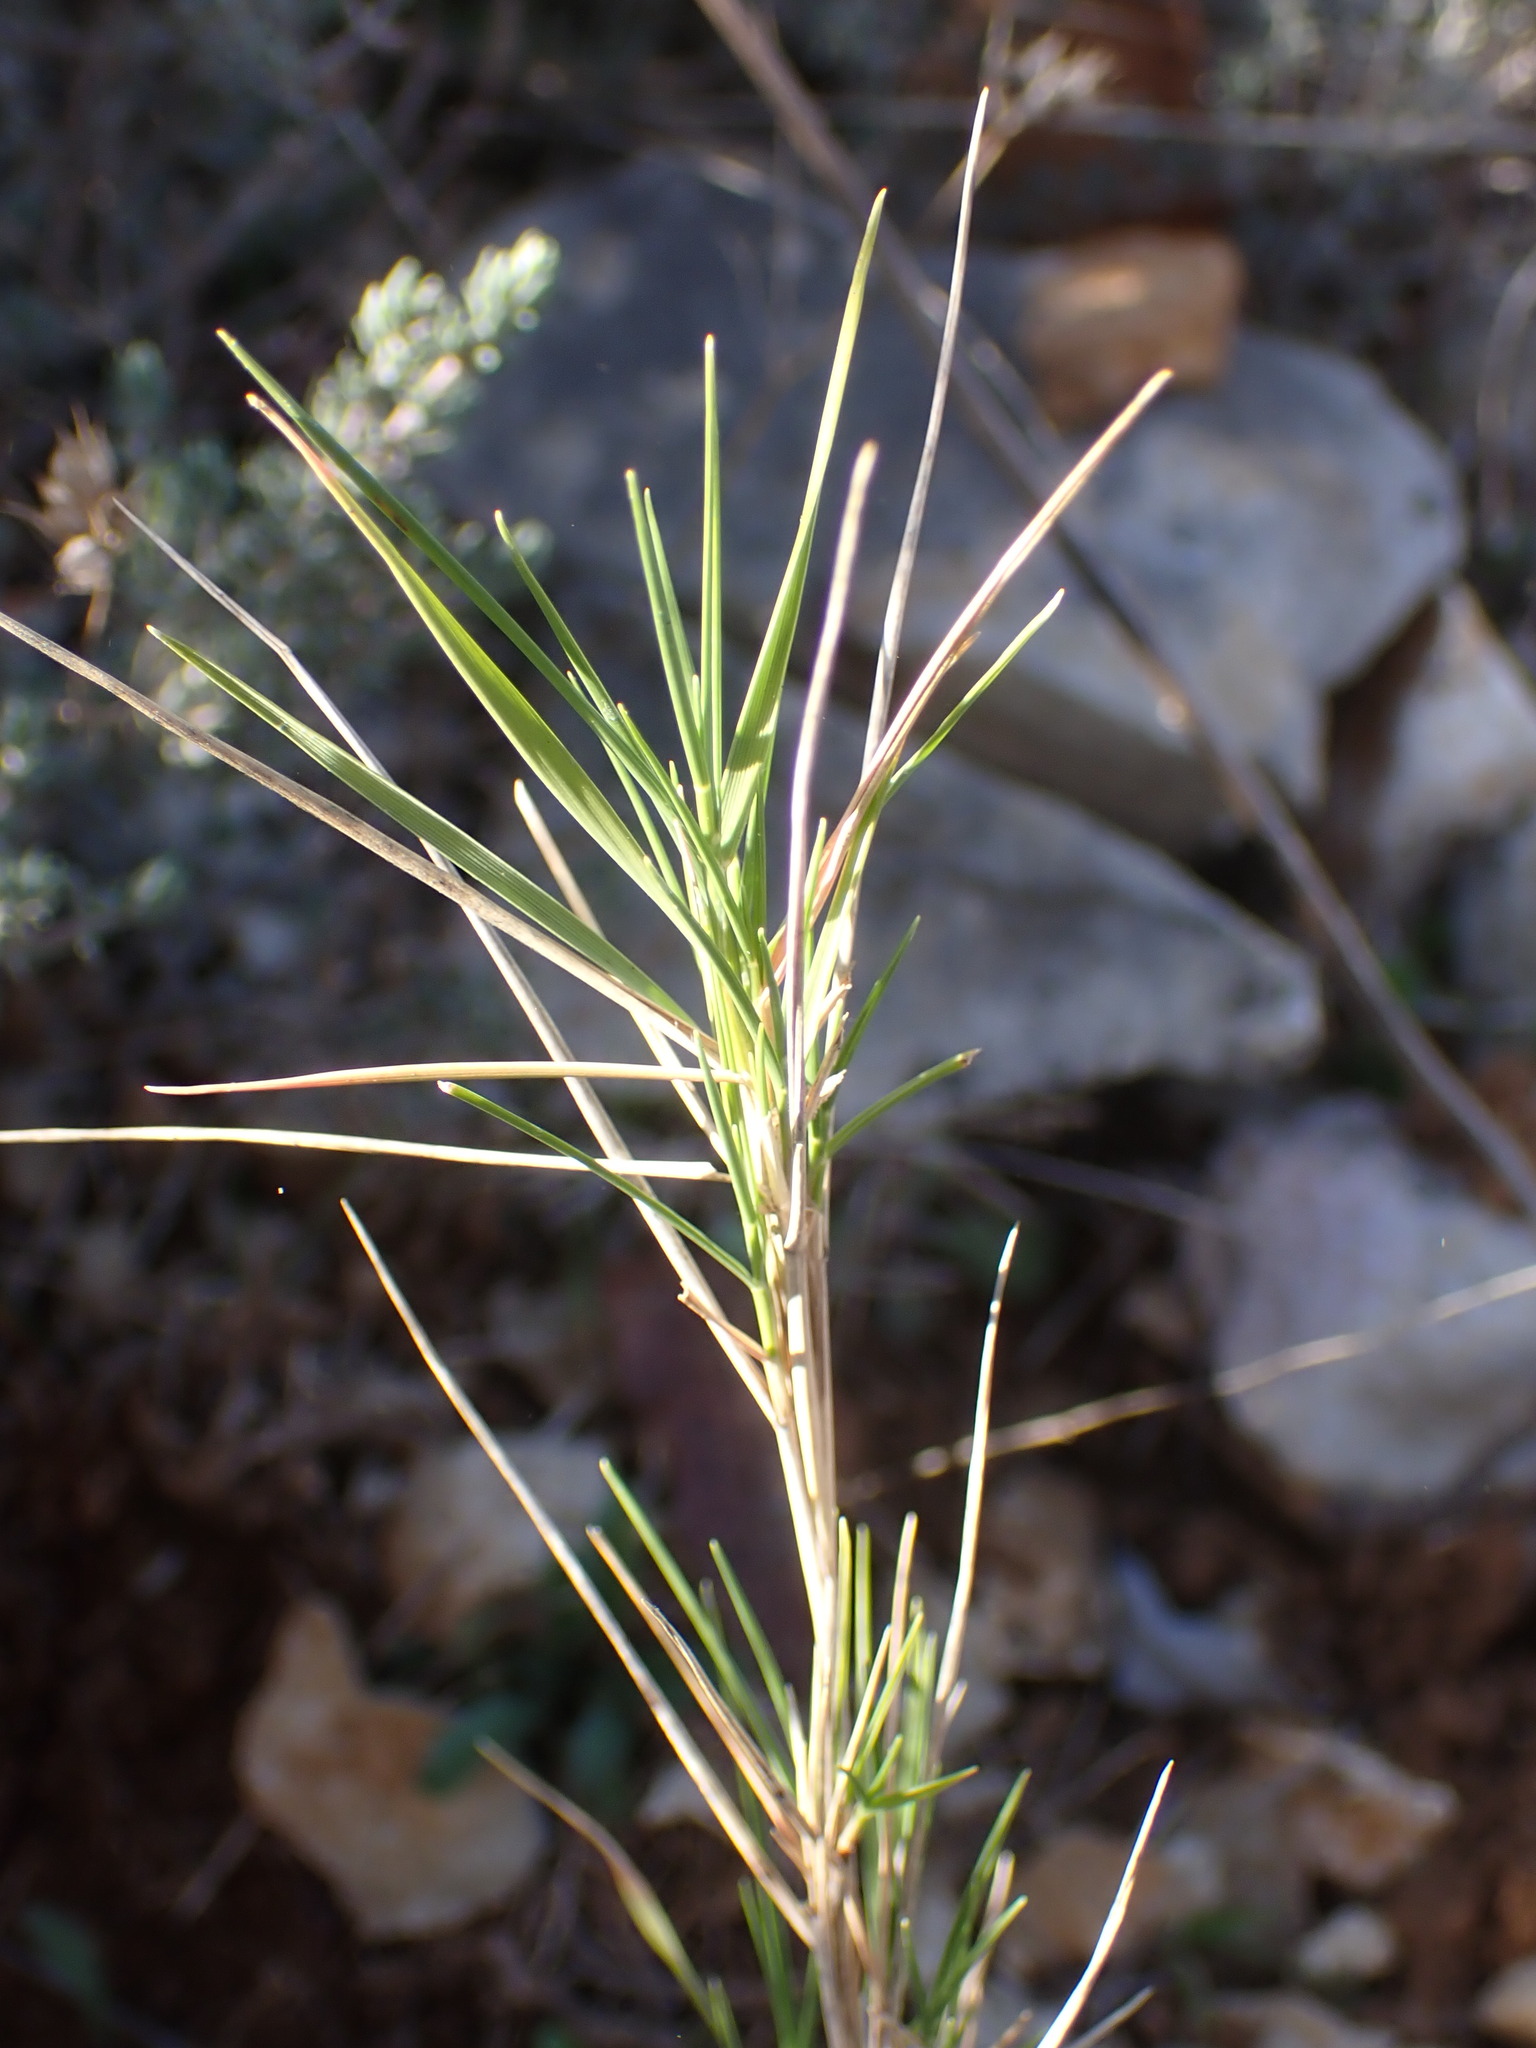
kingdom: Plantae
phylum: Tracheophyta
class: Liliopsida
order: Poales
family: Poaceae
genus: Brachypodium
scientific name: Brachypodium retusum
